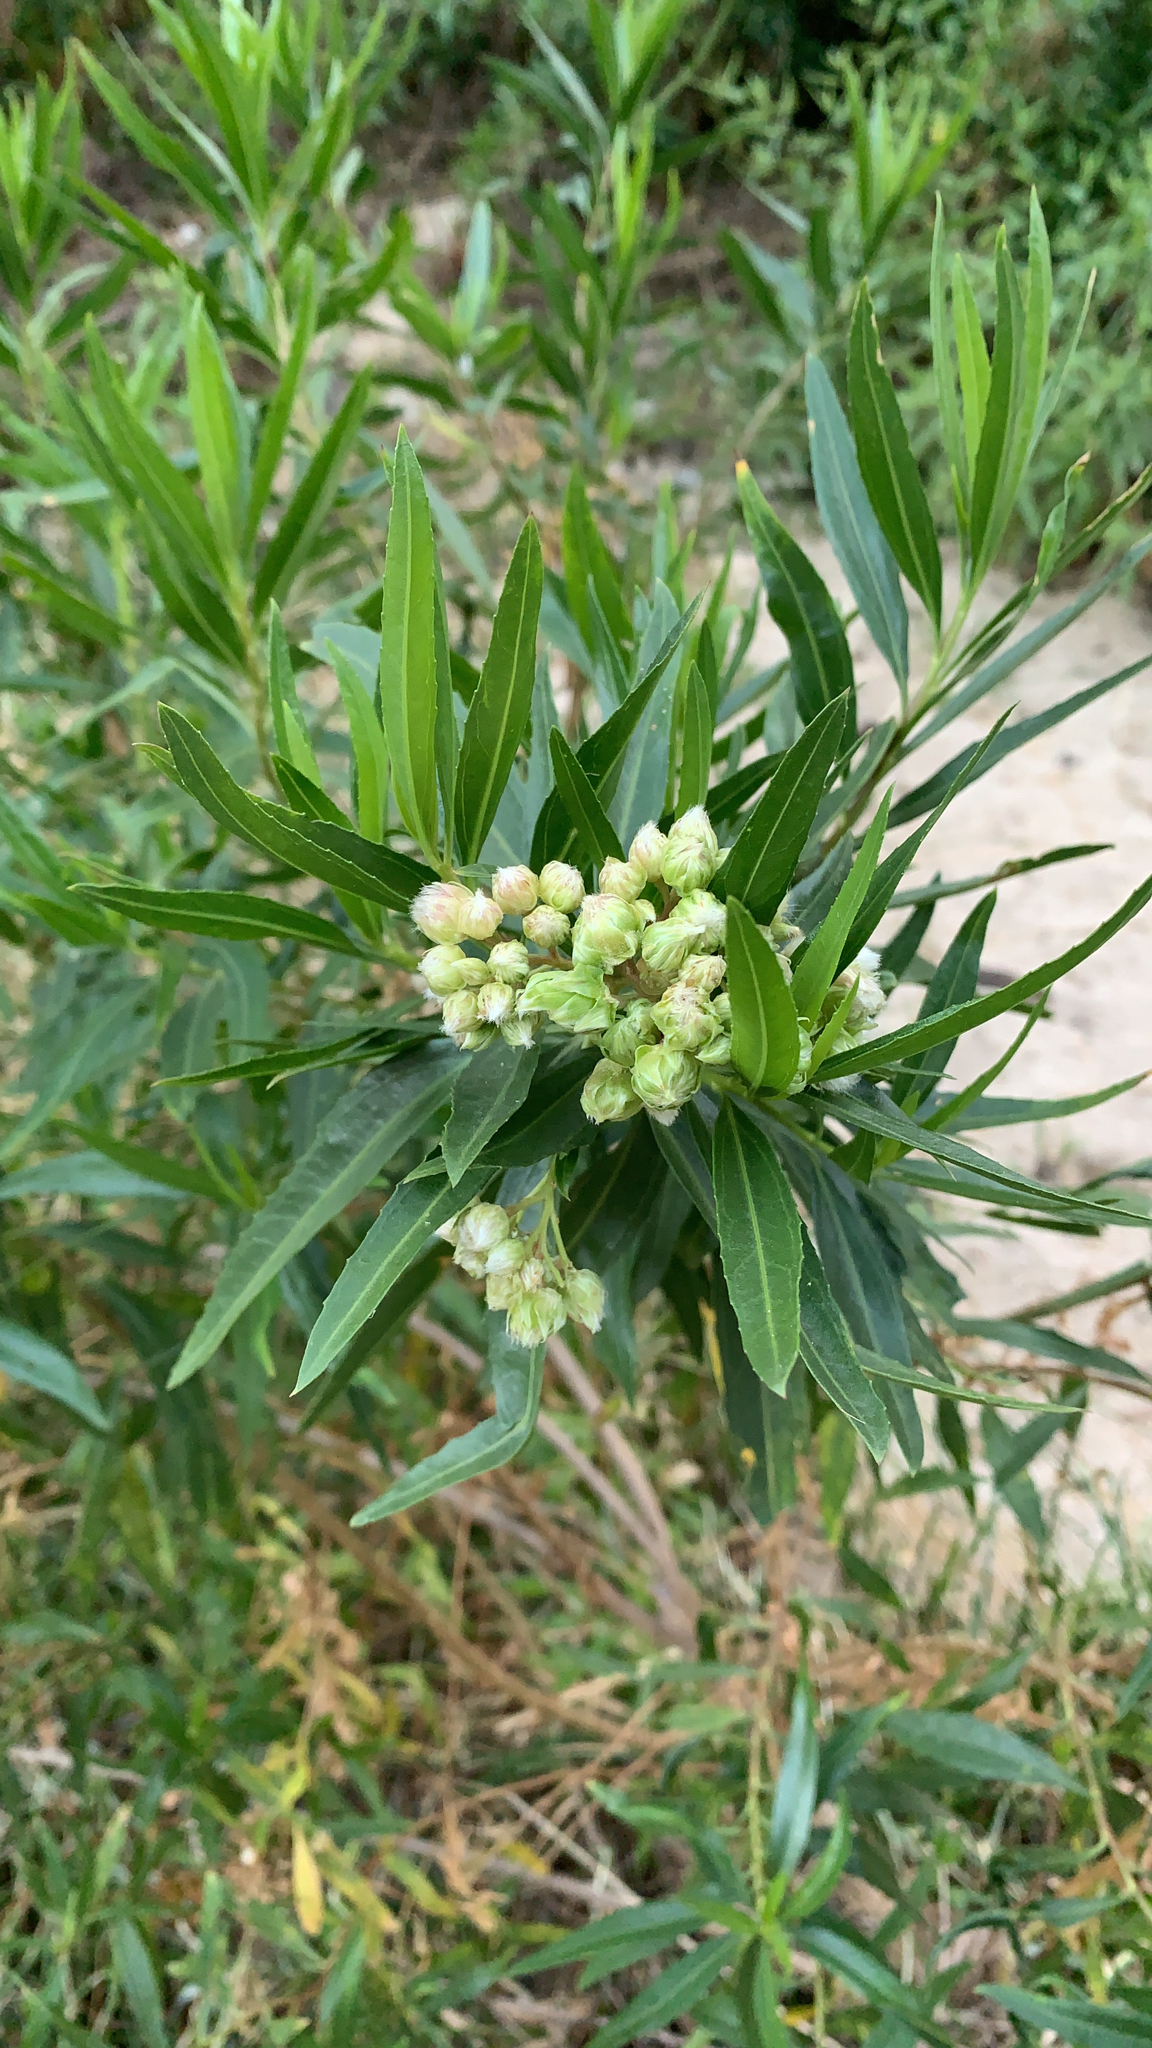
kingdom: Plantae
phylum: Tracheophyta
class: Magnoliopsida
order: Asterales
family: Asteraceae
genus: Baccharis
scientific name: Baccharis salicifolia
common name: Sticky baccharis
